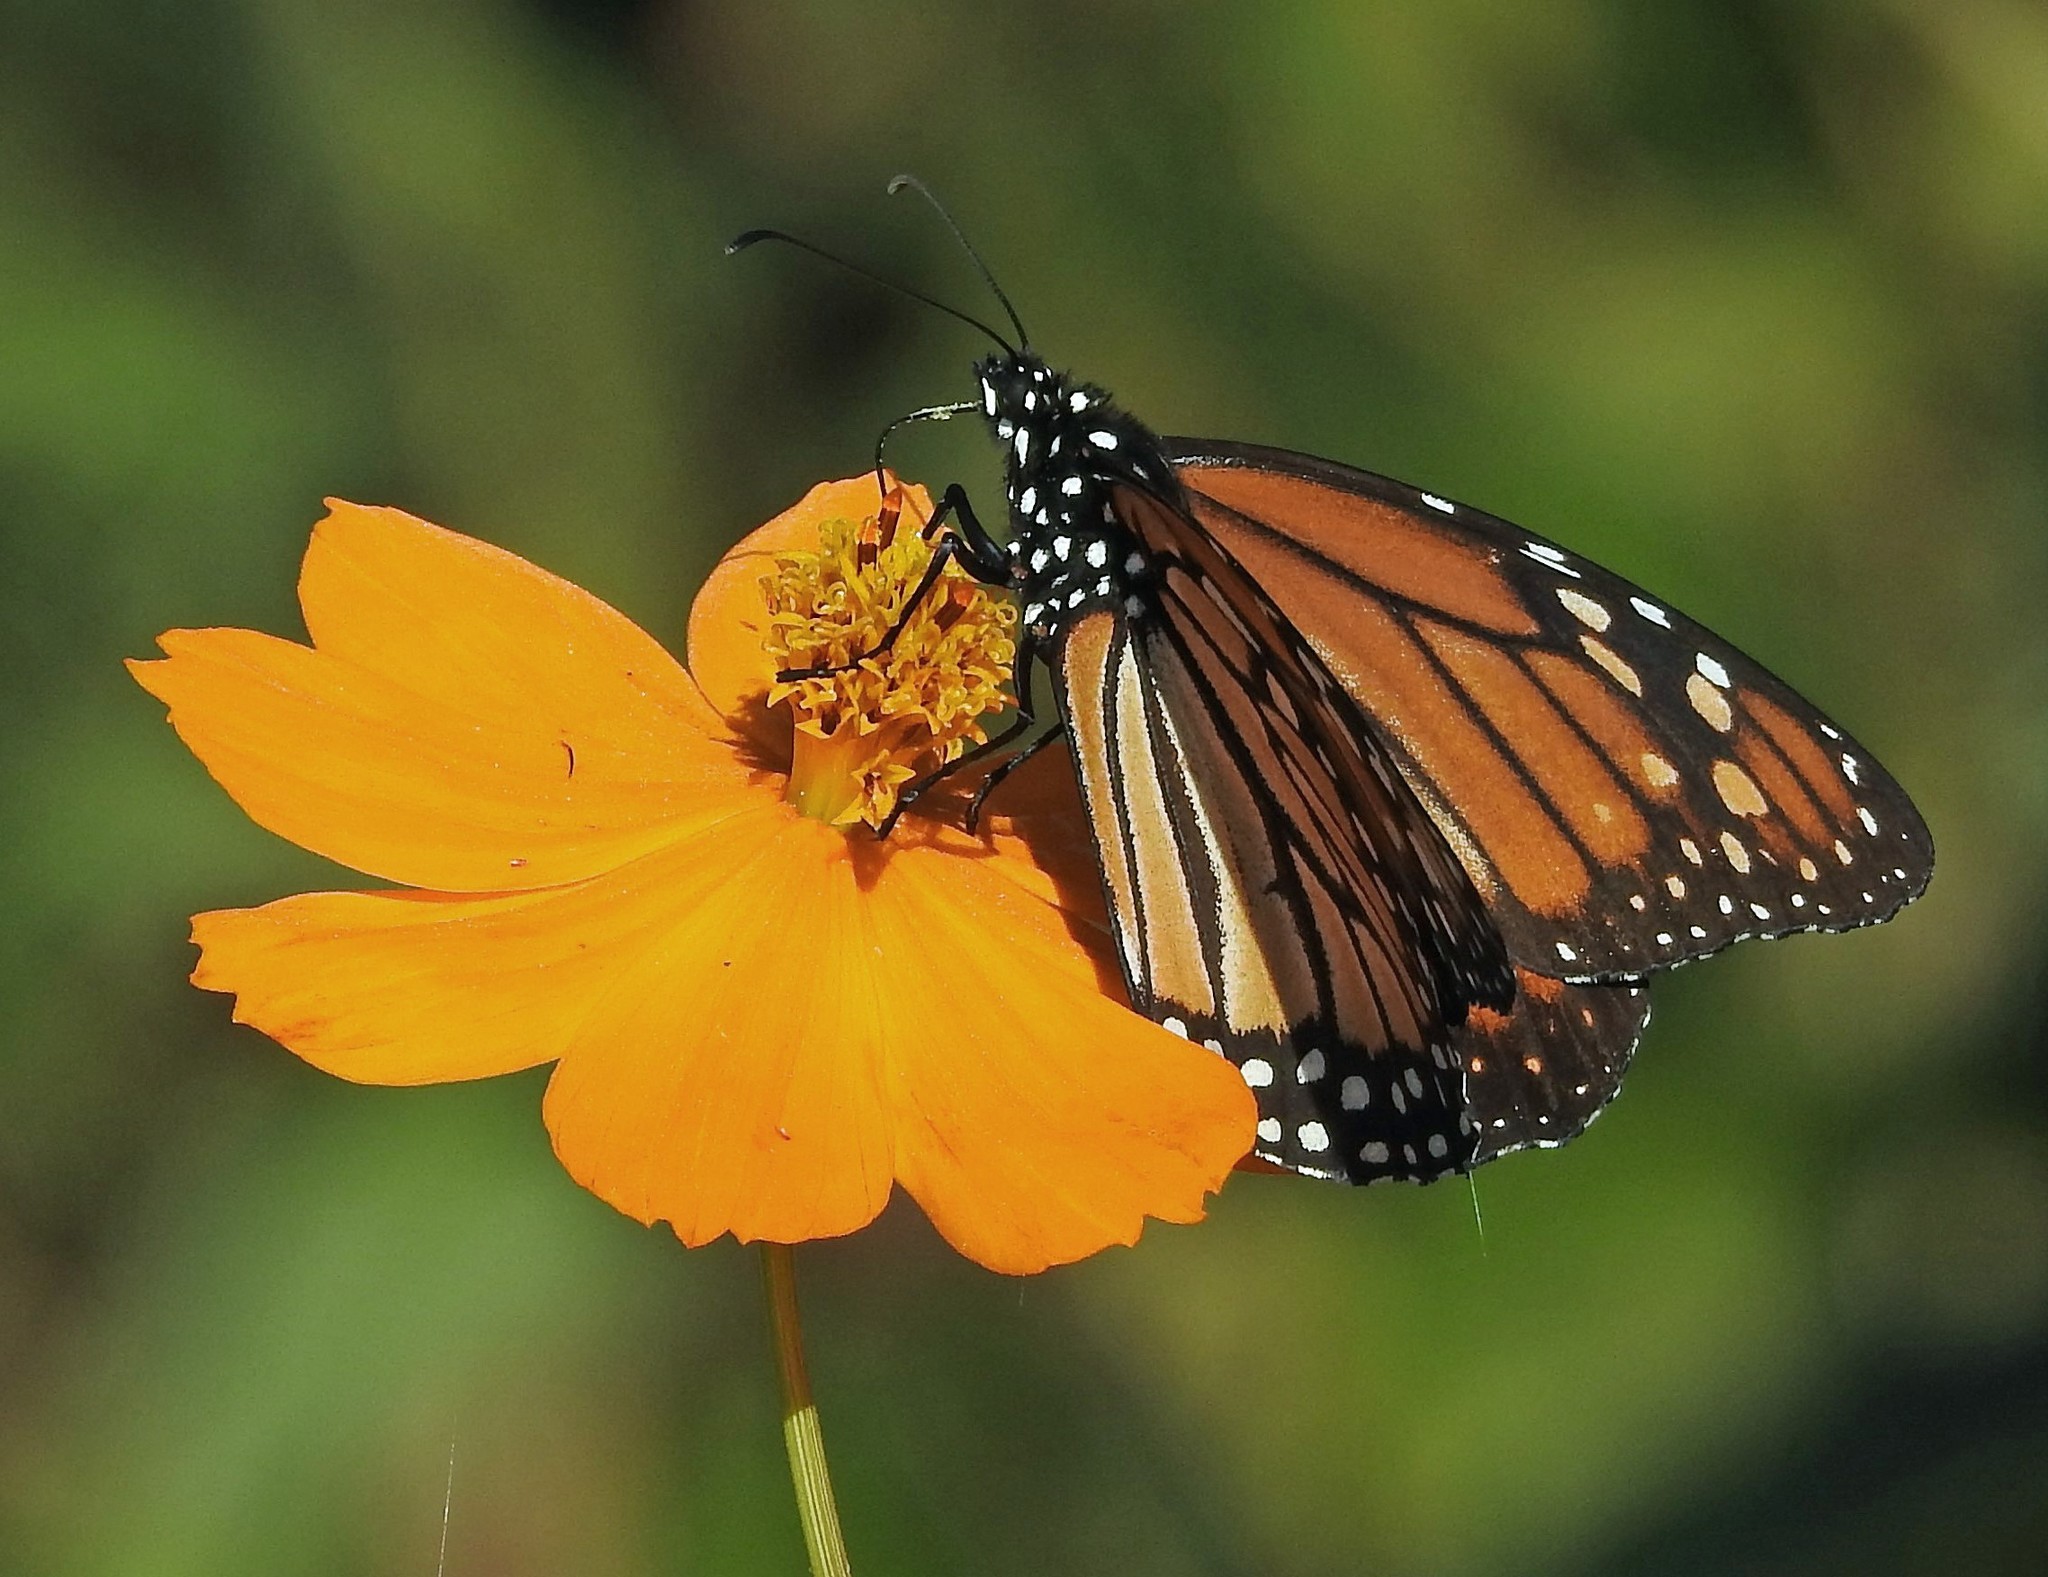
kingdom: Animalia
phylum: Arthropoda
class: Insecta
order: Lepidoptera
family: Nymphalidae
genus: Danaus
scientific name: Danaus erippus
